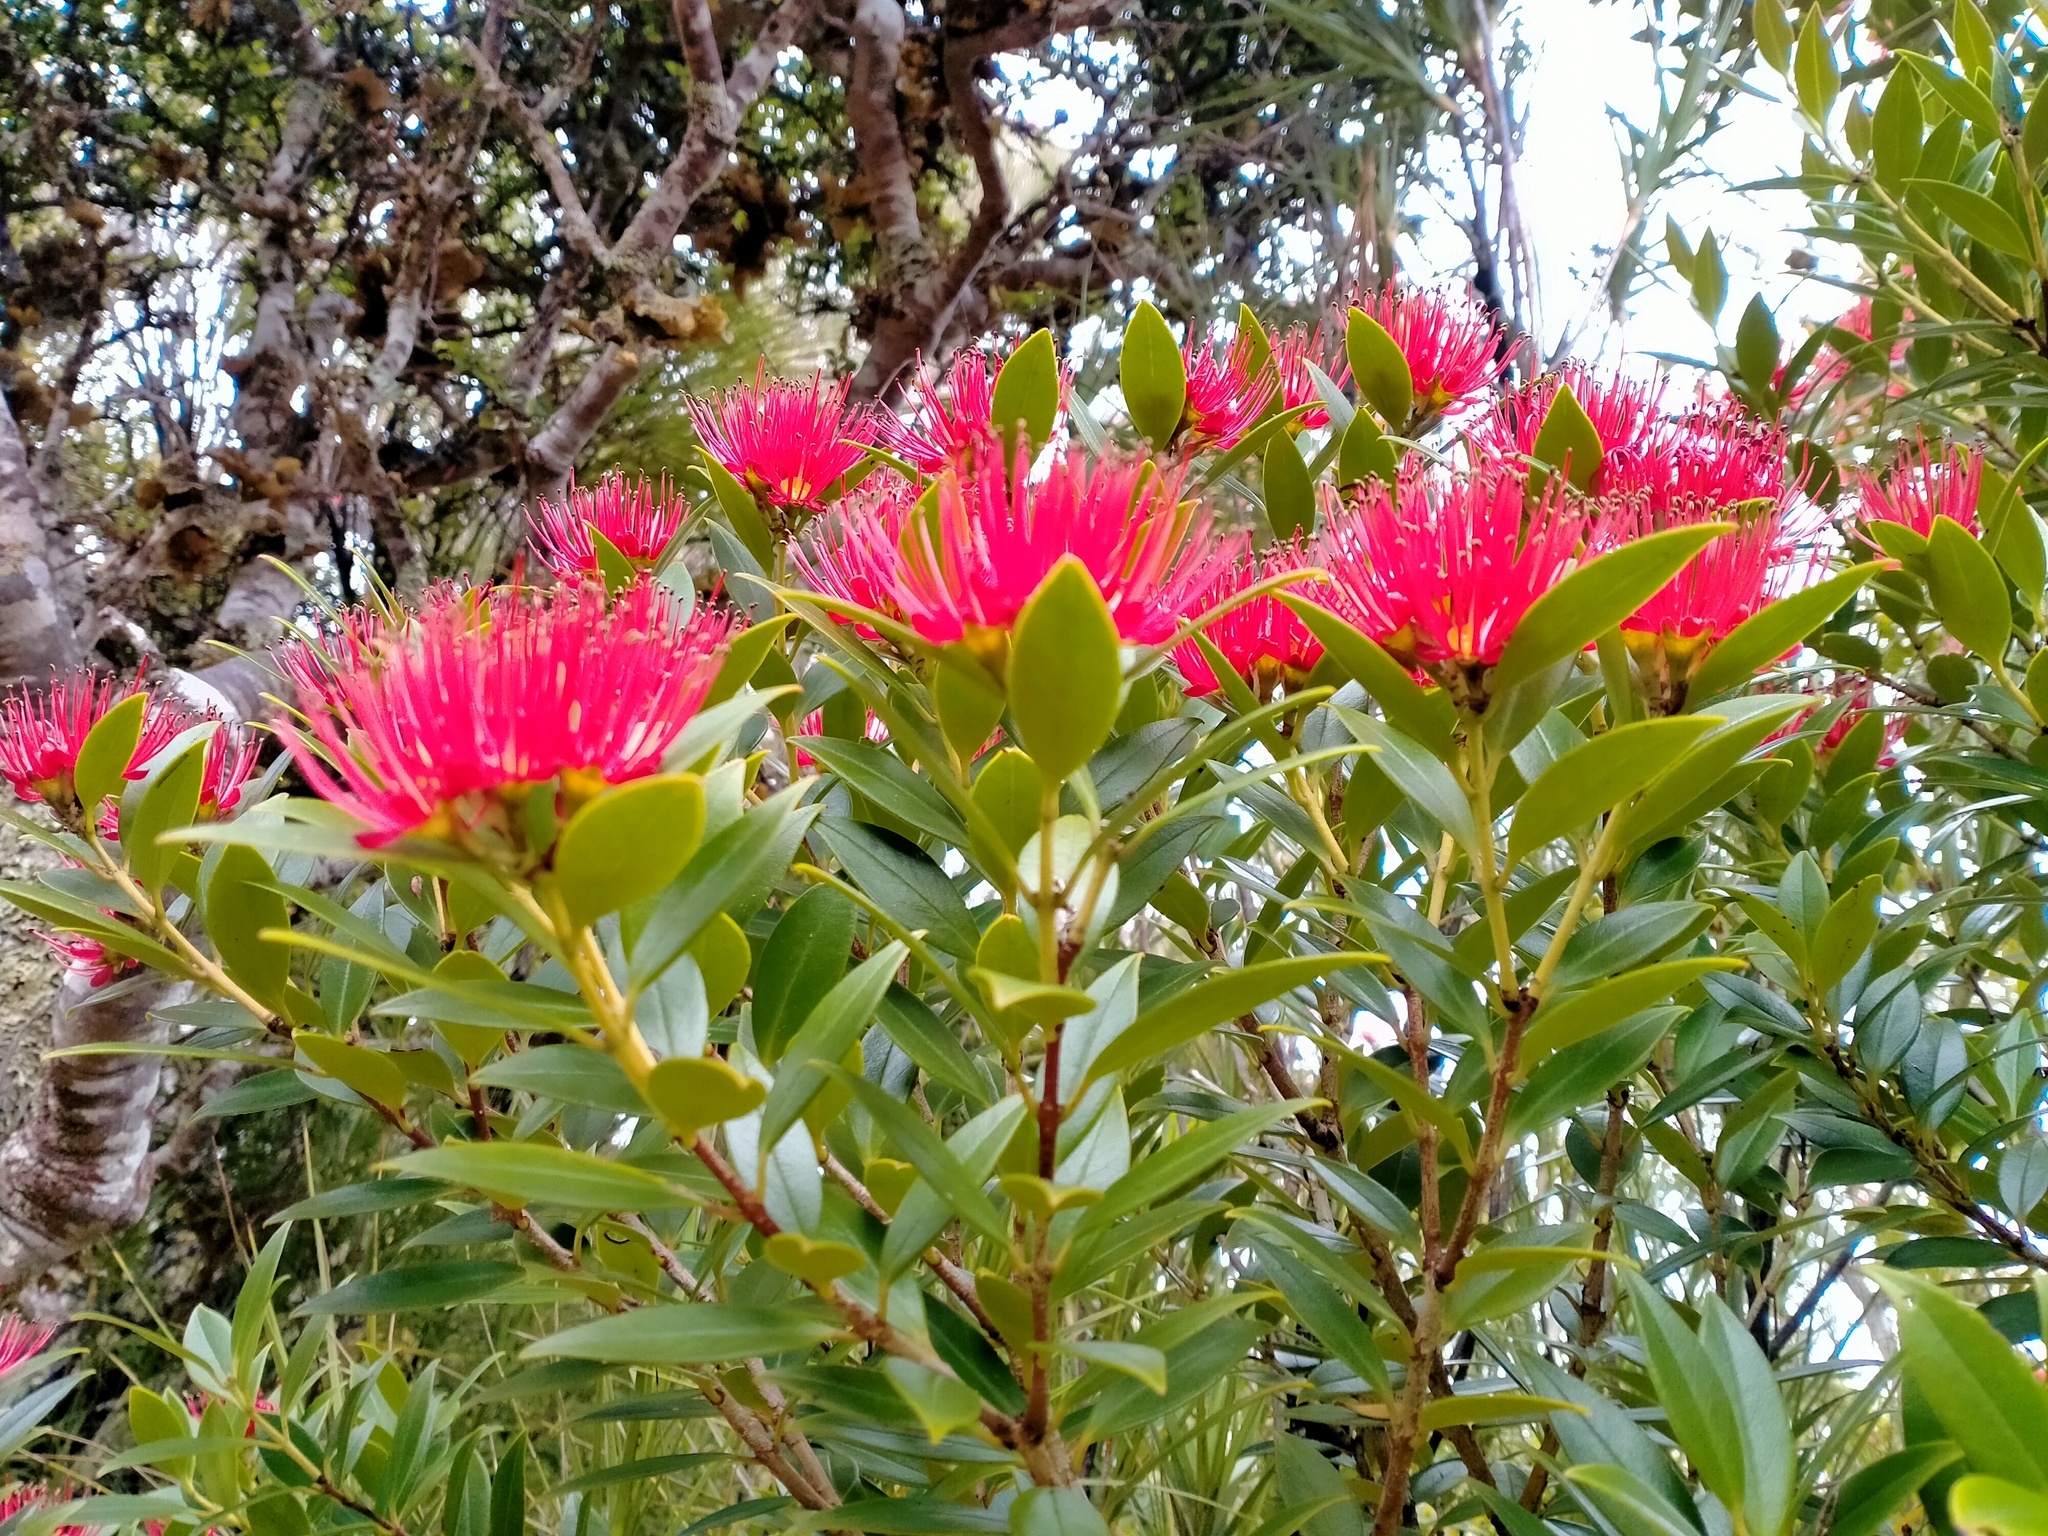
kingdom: Plantae
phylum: Tracheophyta
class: Magnoliopsida
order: Myrtales
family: Myrtaceae
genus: Metrosideros
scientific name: Metrosideros umbellata
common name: Southern rata
